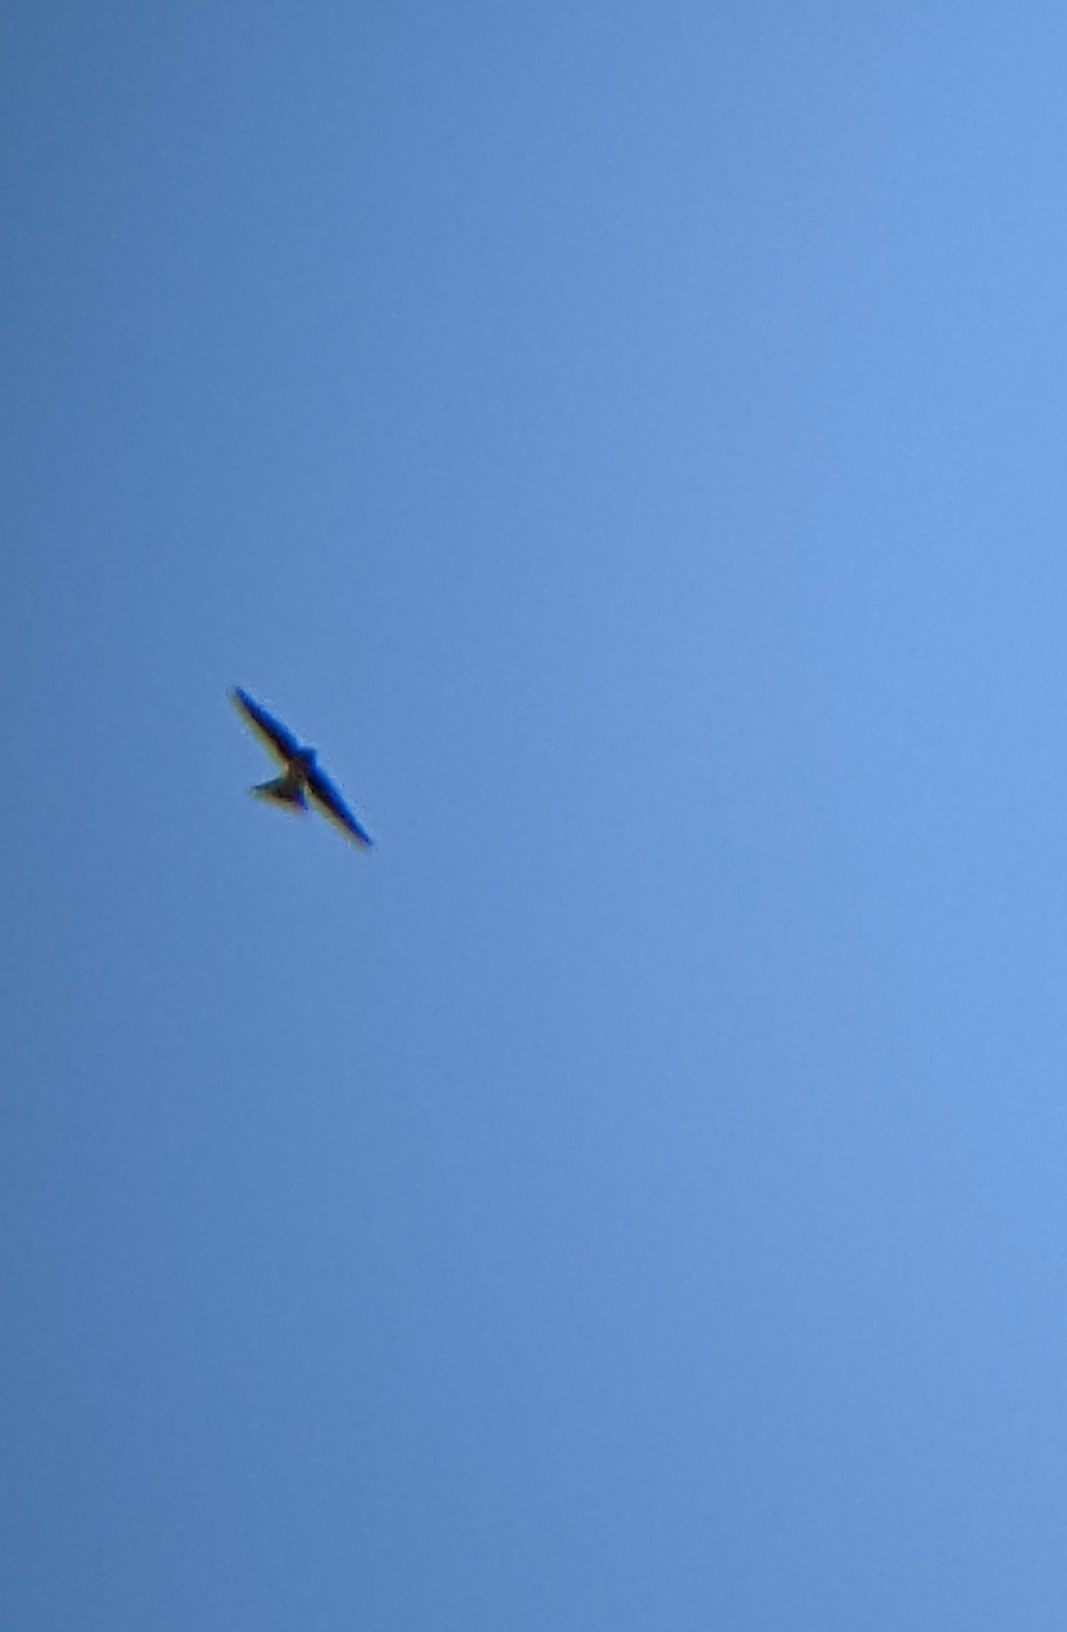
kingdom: Animalia
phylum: Chordata
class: Aves
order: Passeriformes
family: Hirundinidae
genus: Delichon
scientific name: Delichon urbicum
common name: Common house martin
